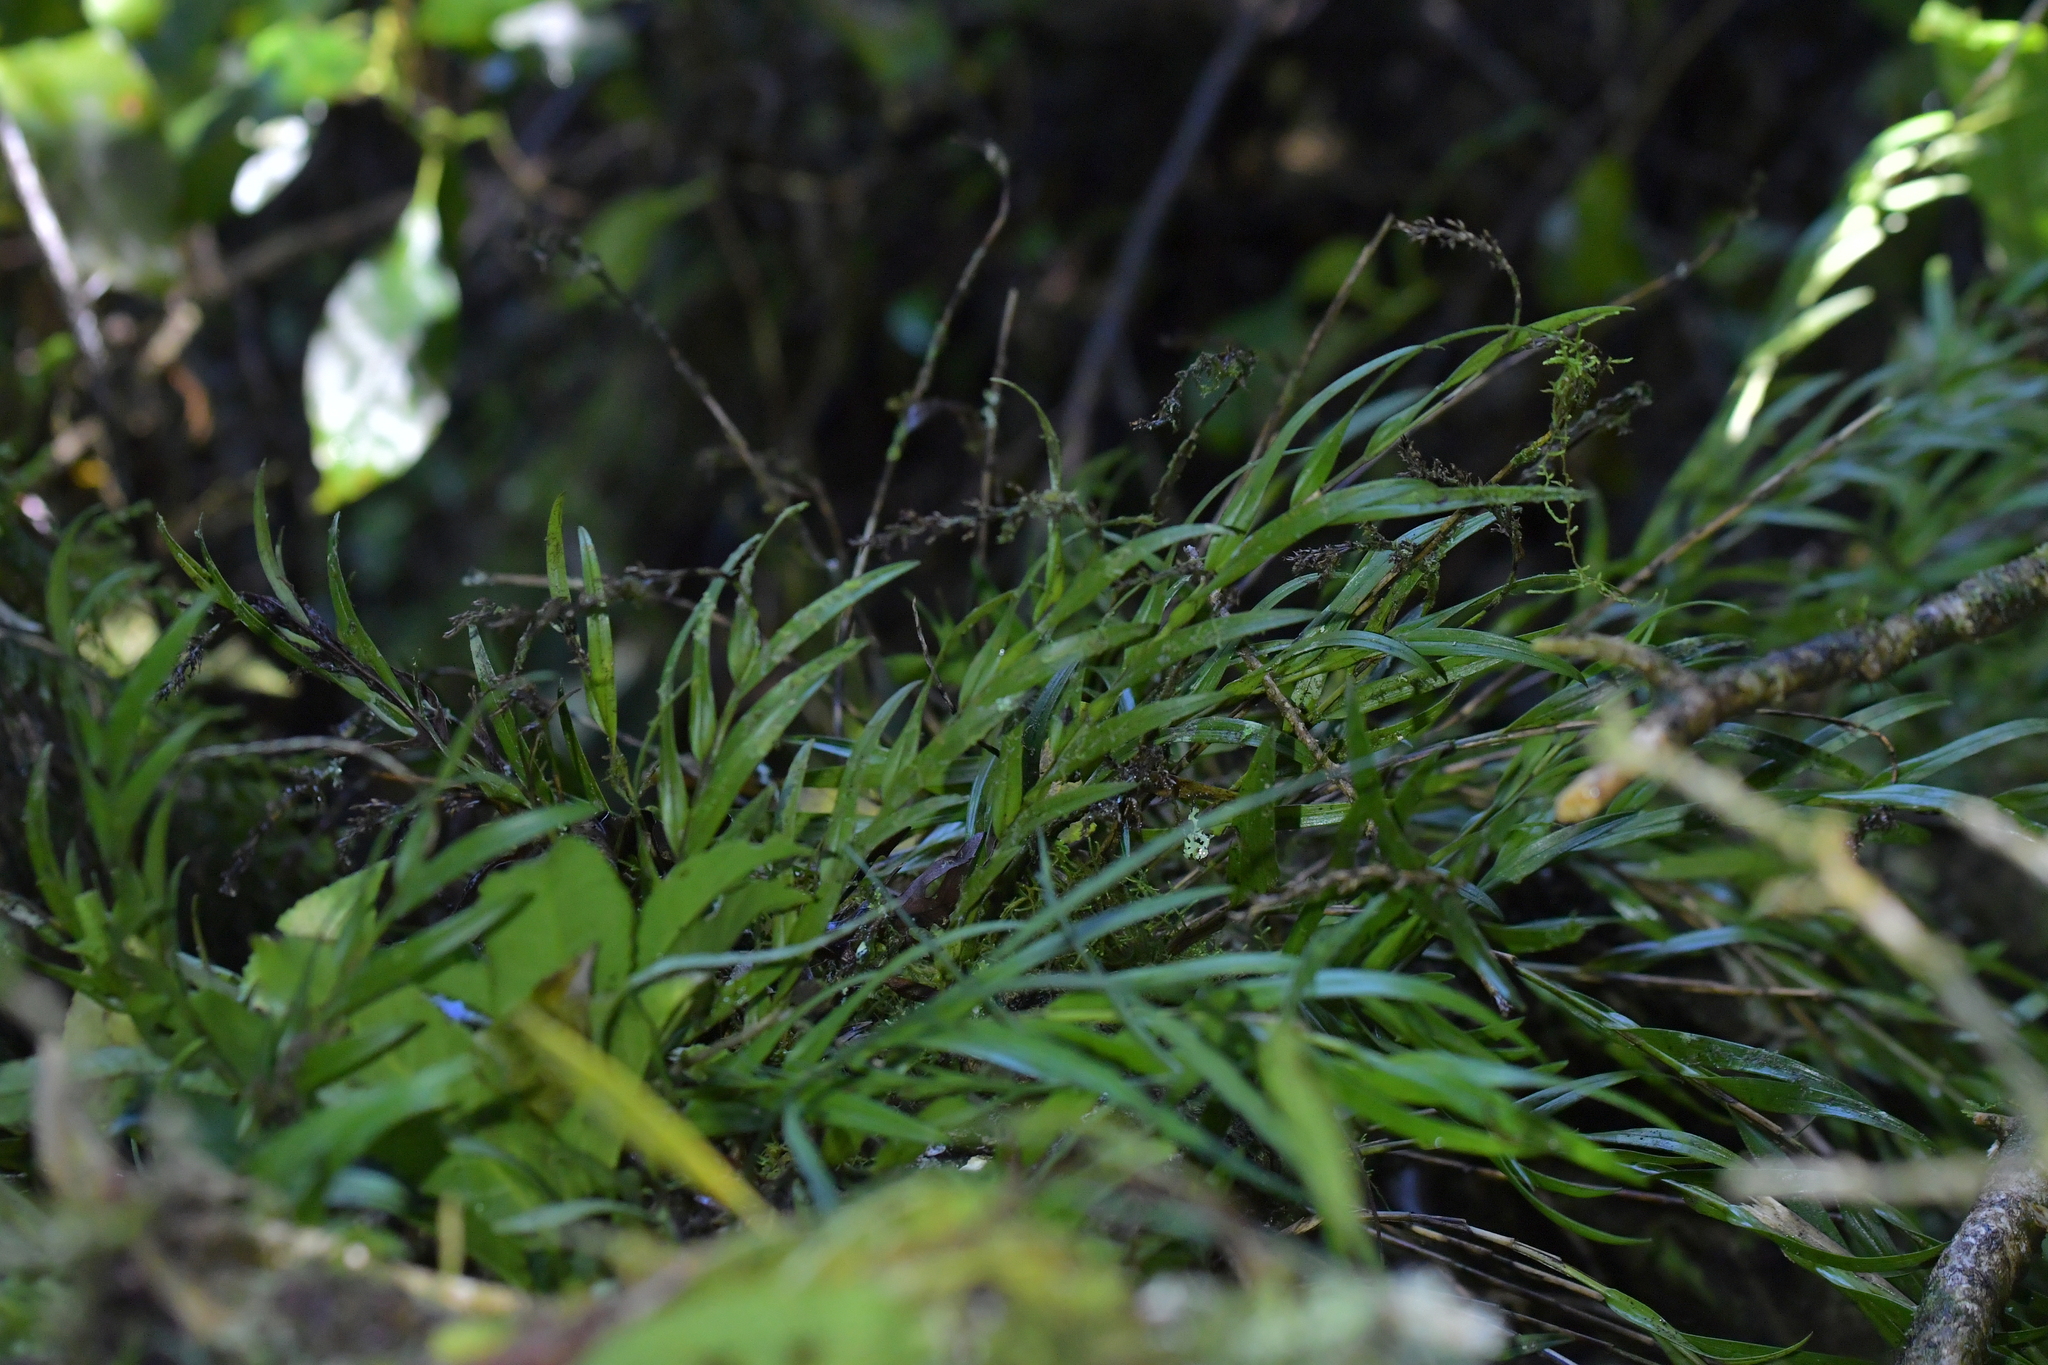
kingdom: Plantae
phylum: Tracheophyta
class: Liliopsida
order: Asparagales
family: Orchidaceae
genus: Earina
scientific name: Earina autumnalis
